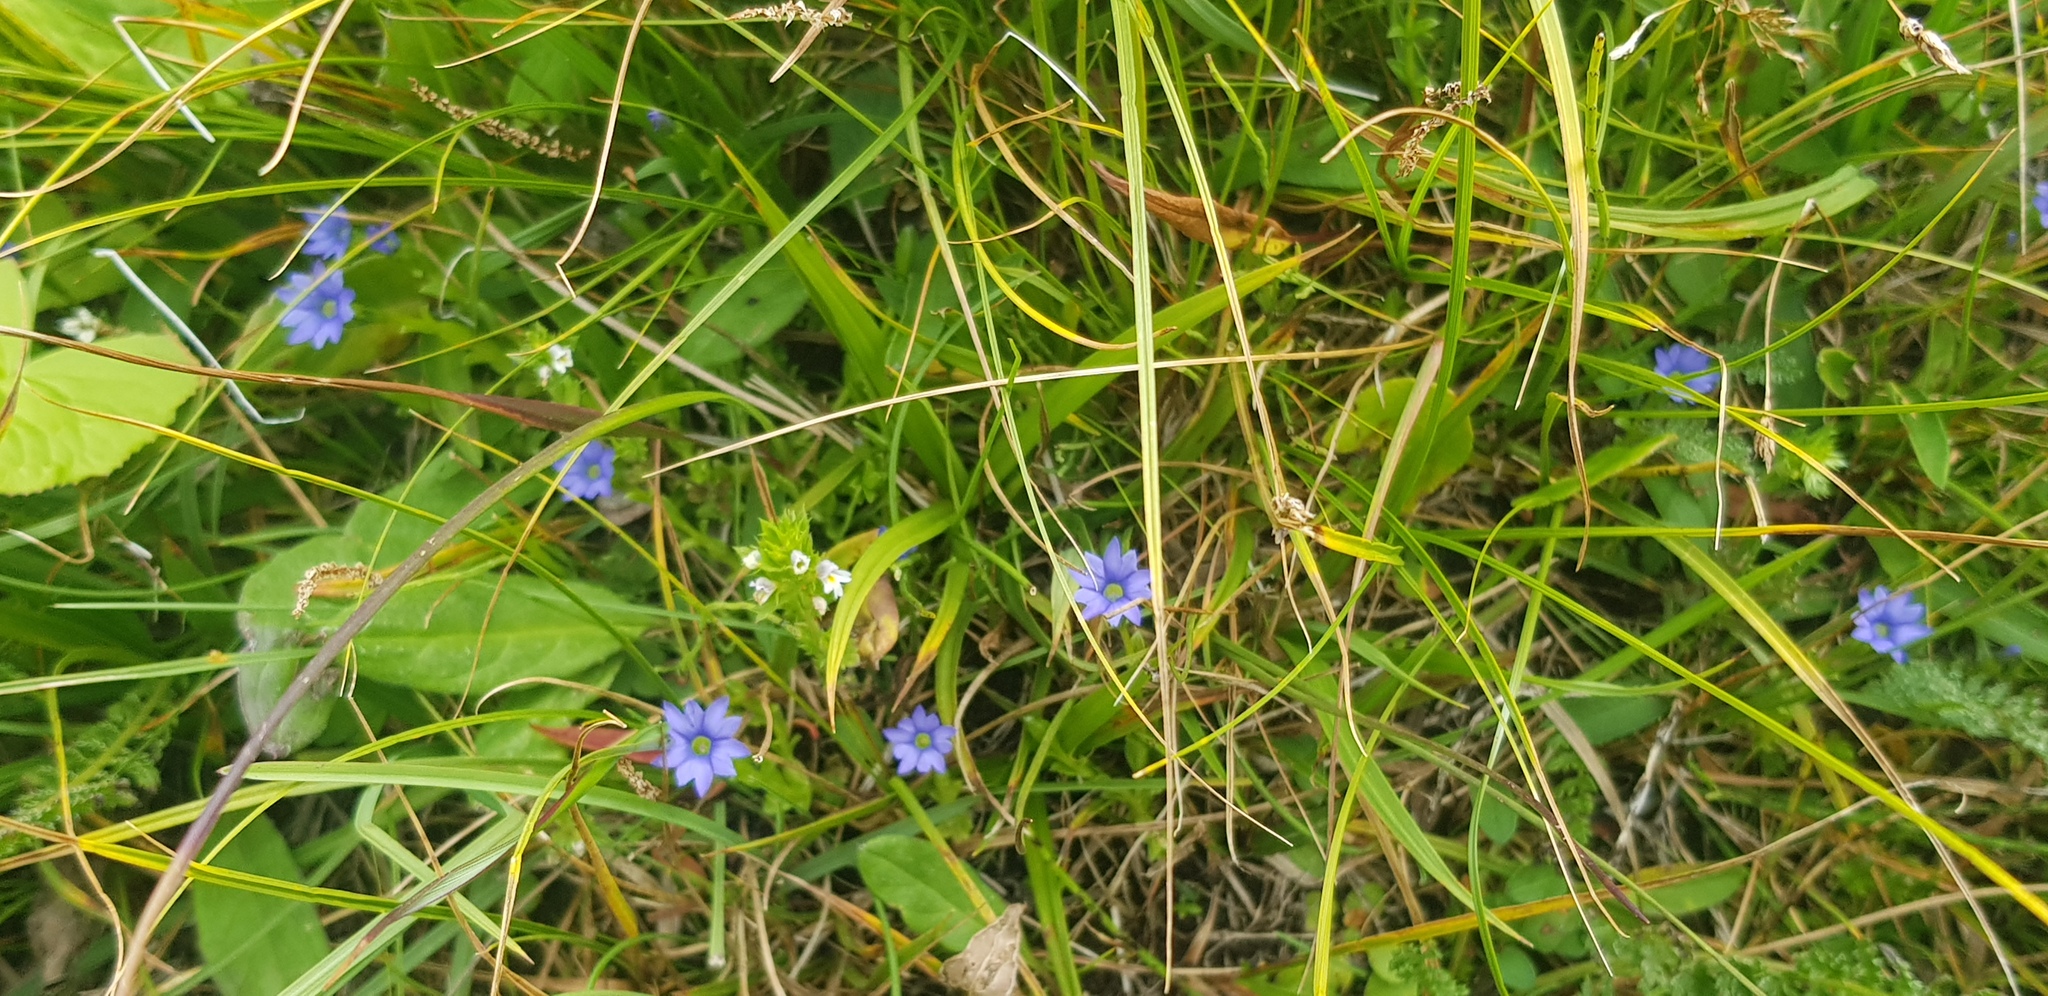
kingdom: Plantae
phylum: Tracheophyta
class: Magnoliopsida
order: Gentianales
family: Gentianaceae
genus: Gentiana
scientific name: Gentiana prostrata
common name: Moss gentian
